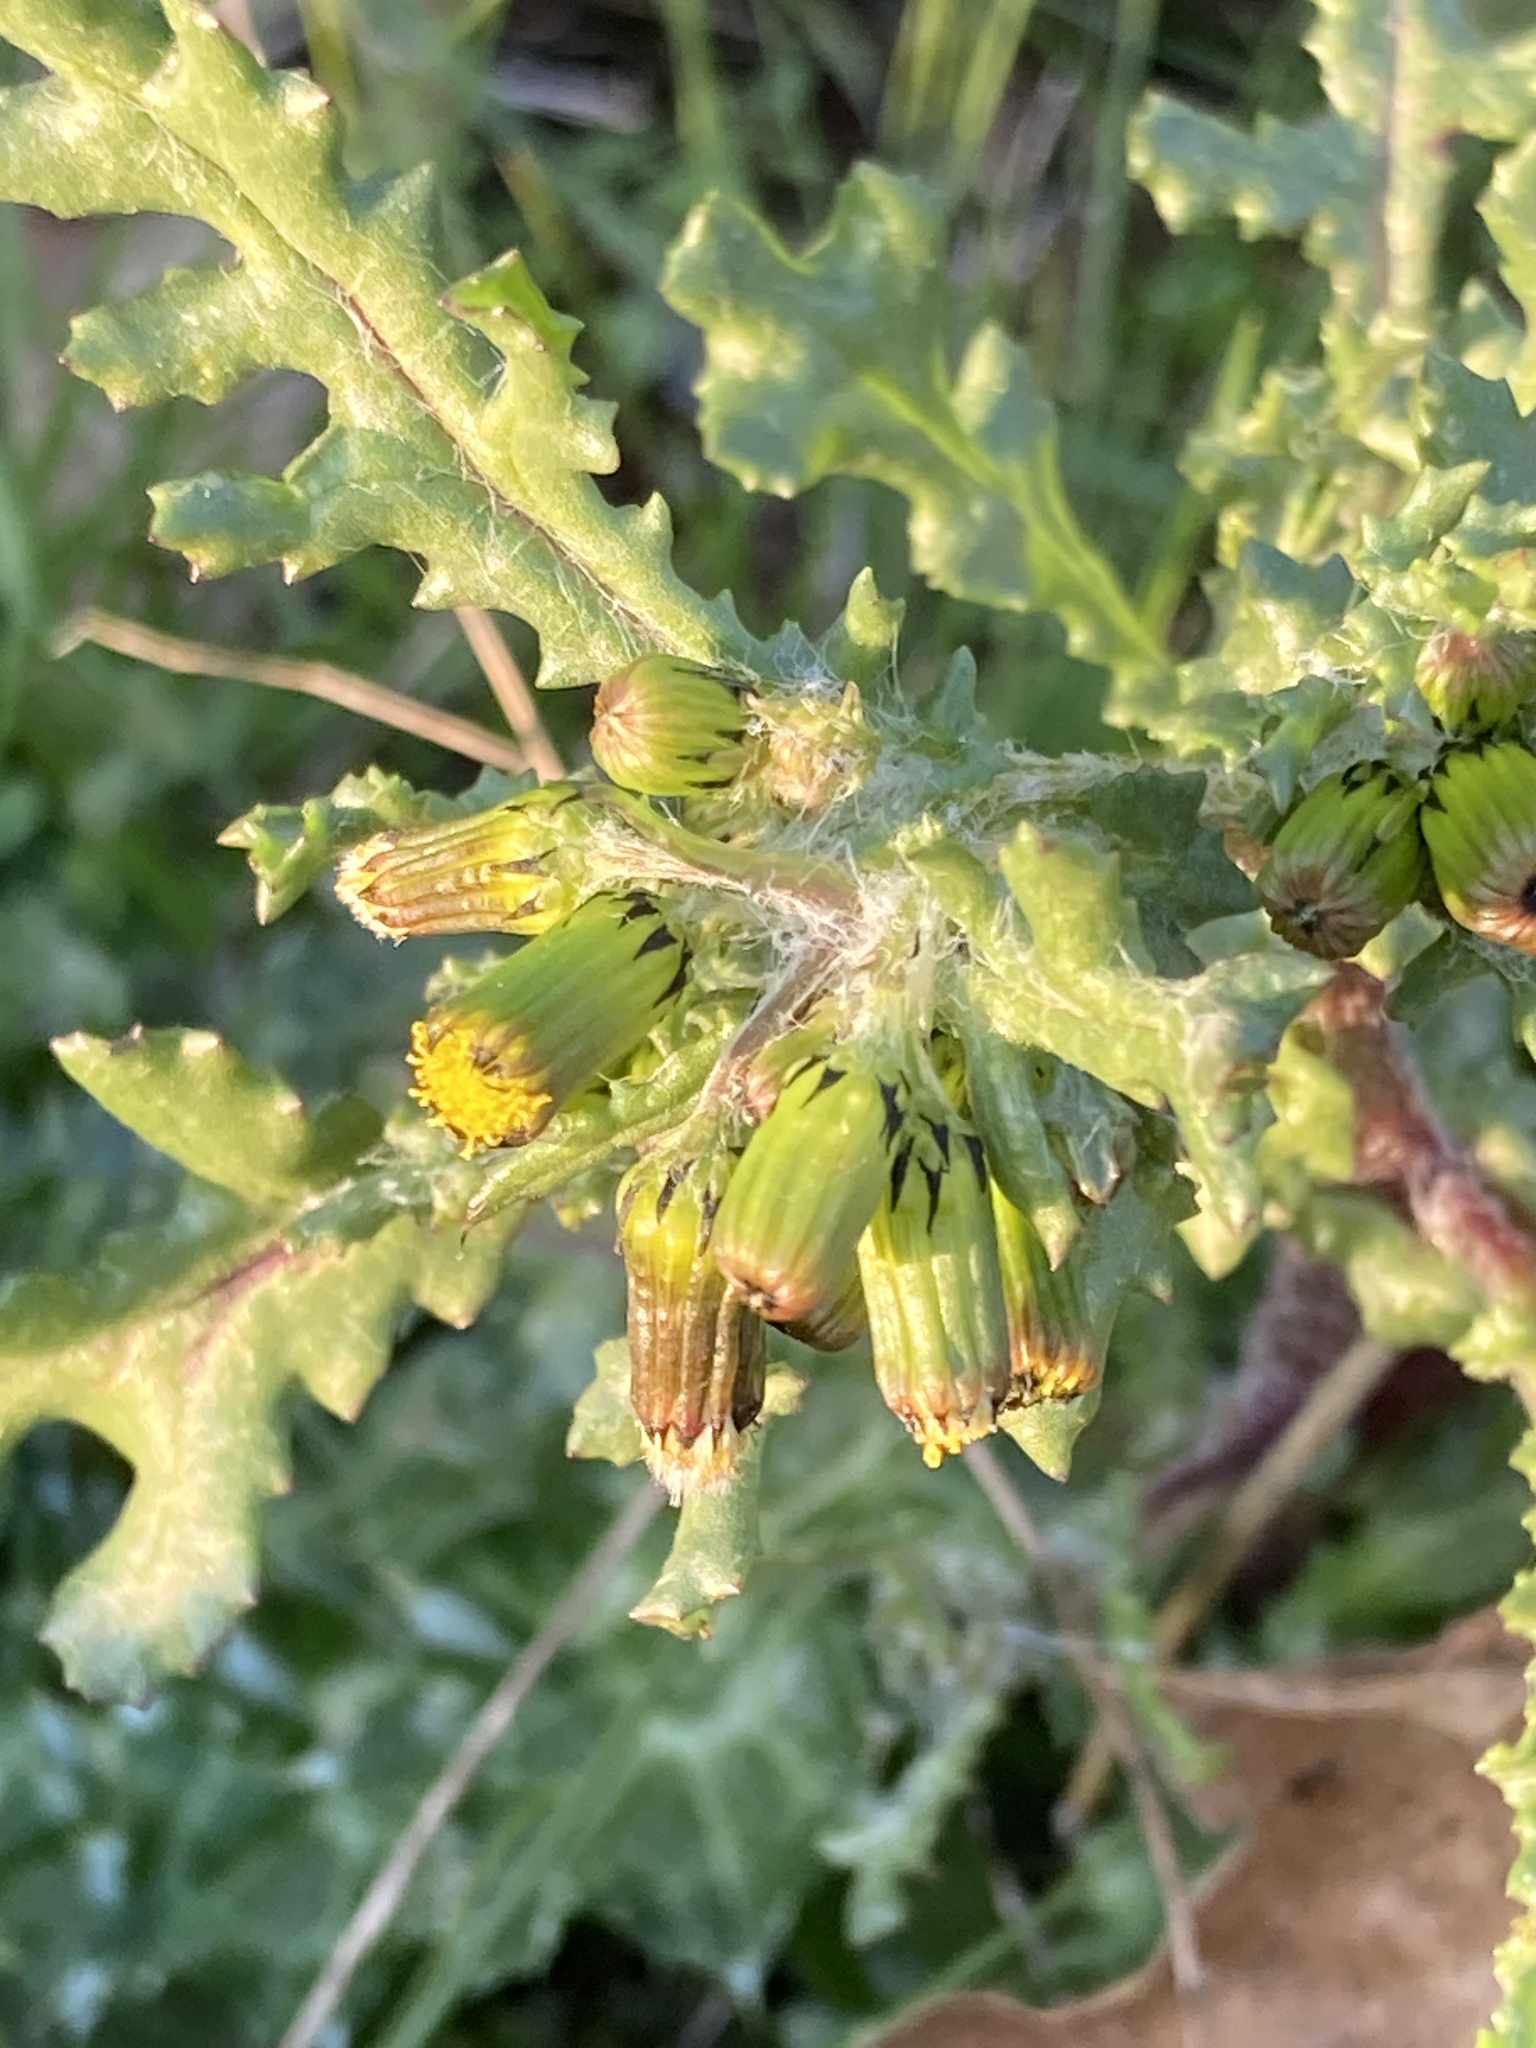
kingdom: Plantae
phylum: Tracheophyta
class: Magnoliopsida
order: Asterales
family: Asteraceae
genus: Senecio
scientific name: Senecio vulgaris
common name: Old-man-in-the-spring
